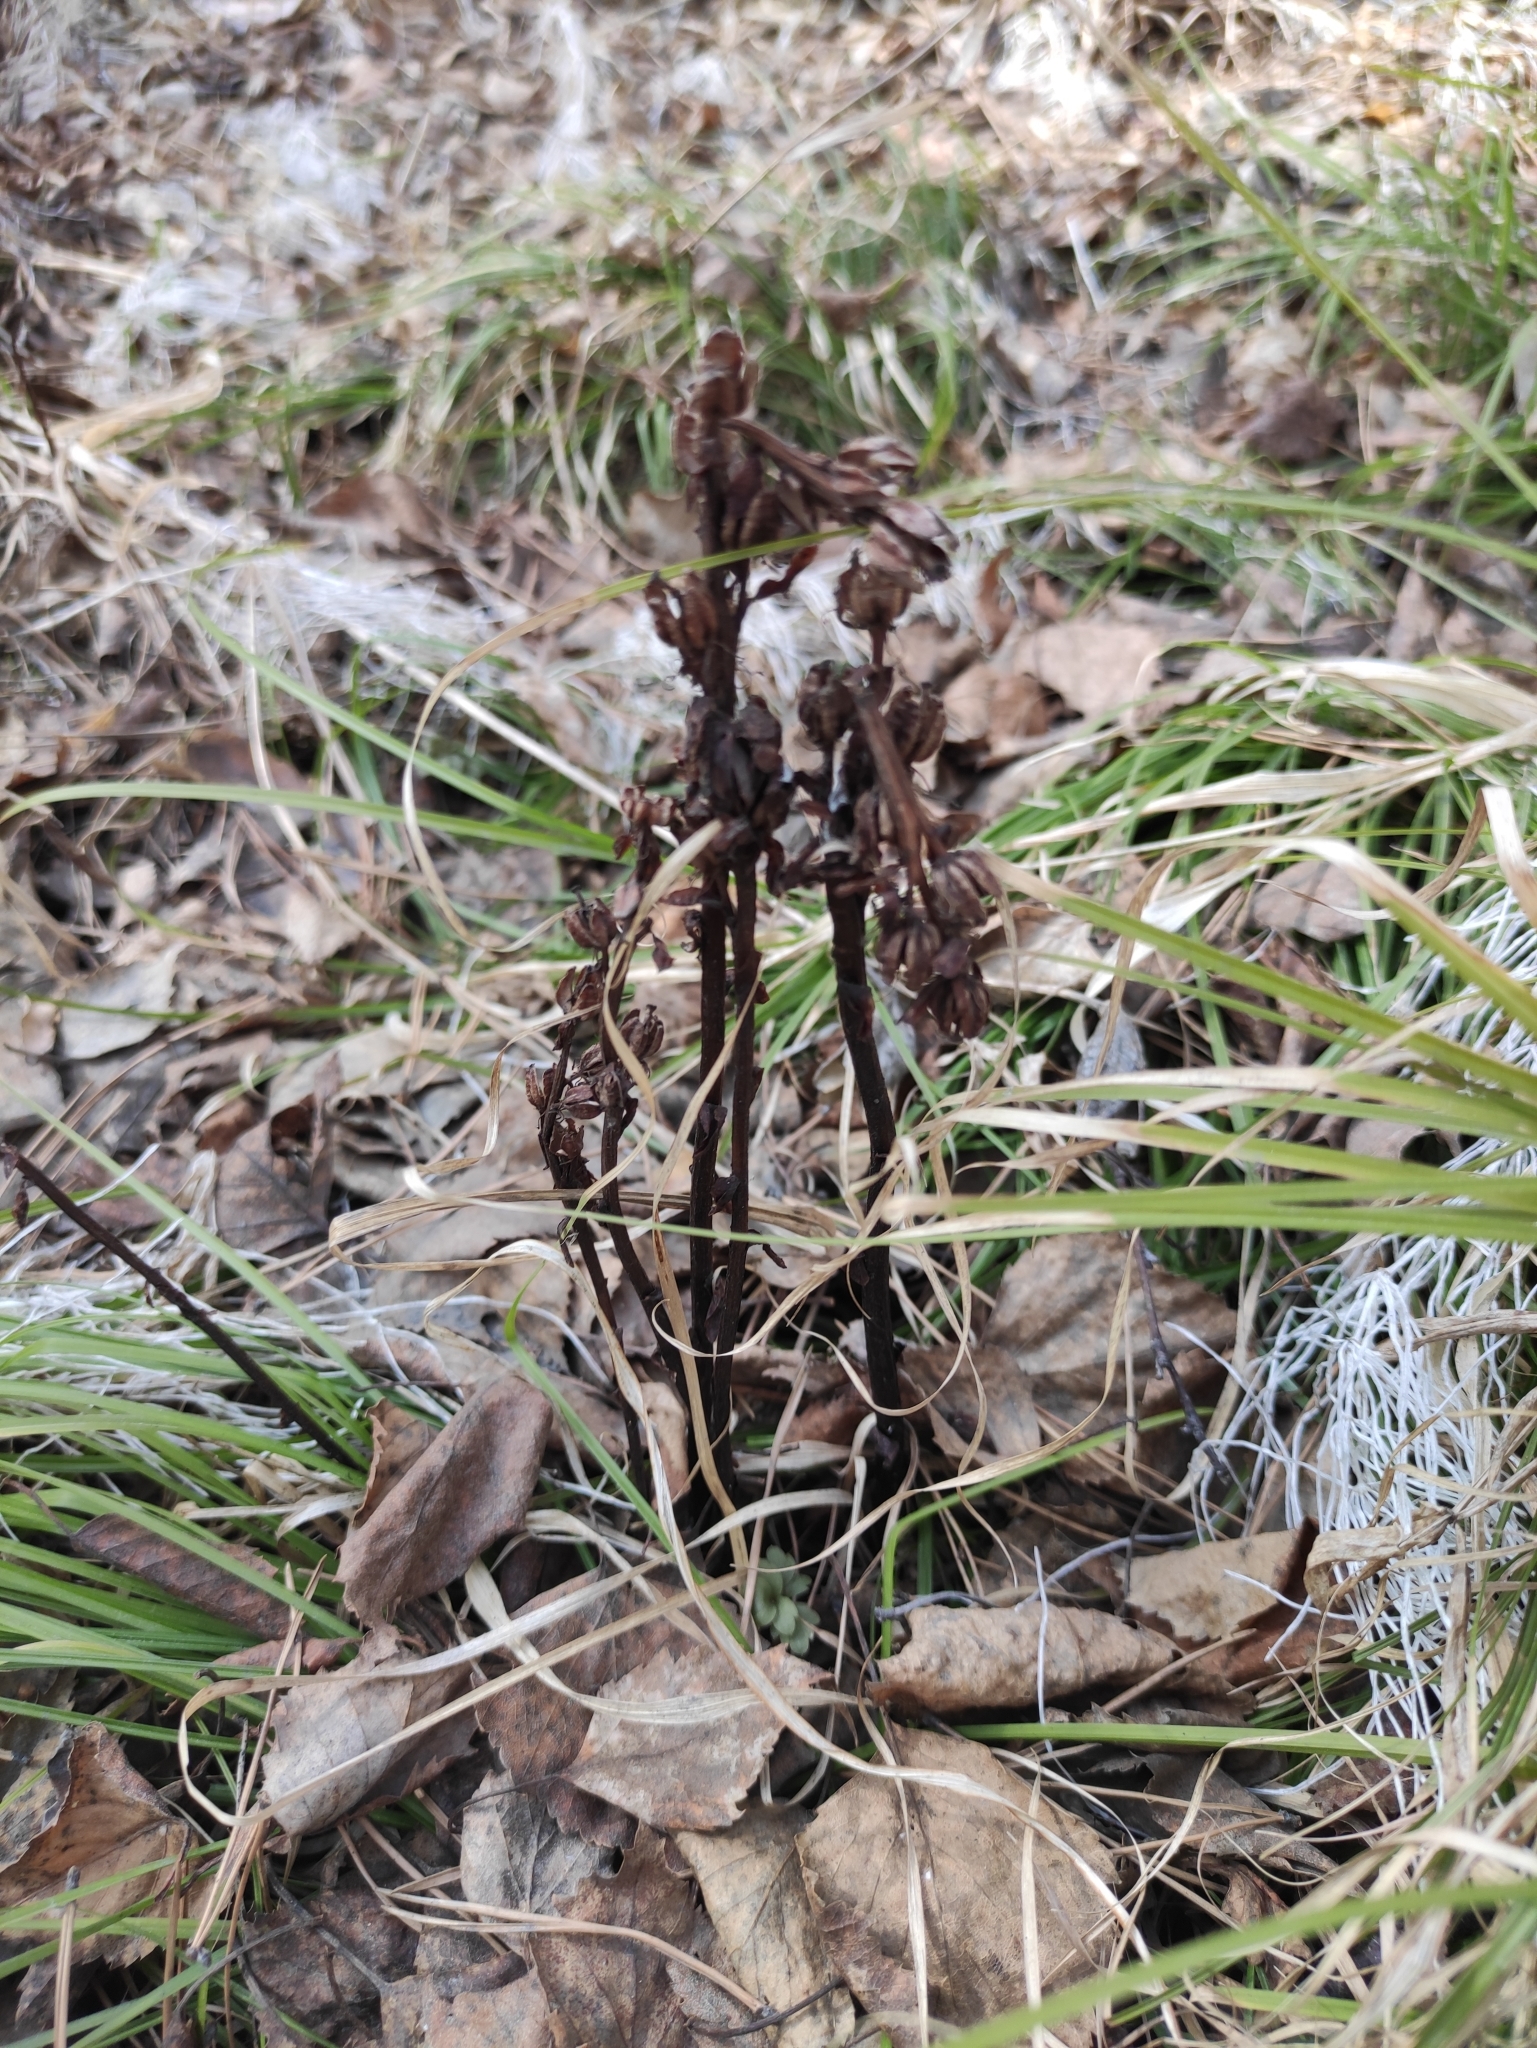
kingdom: Plantae
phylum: Tracheophyta
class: Magnoliopsida
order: Ericales
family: Ericaceae
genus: Hypopitys
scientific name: Hypopitys monotropa
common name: Yellow bird's-nest
